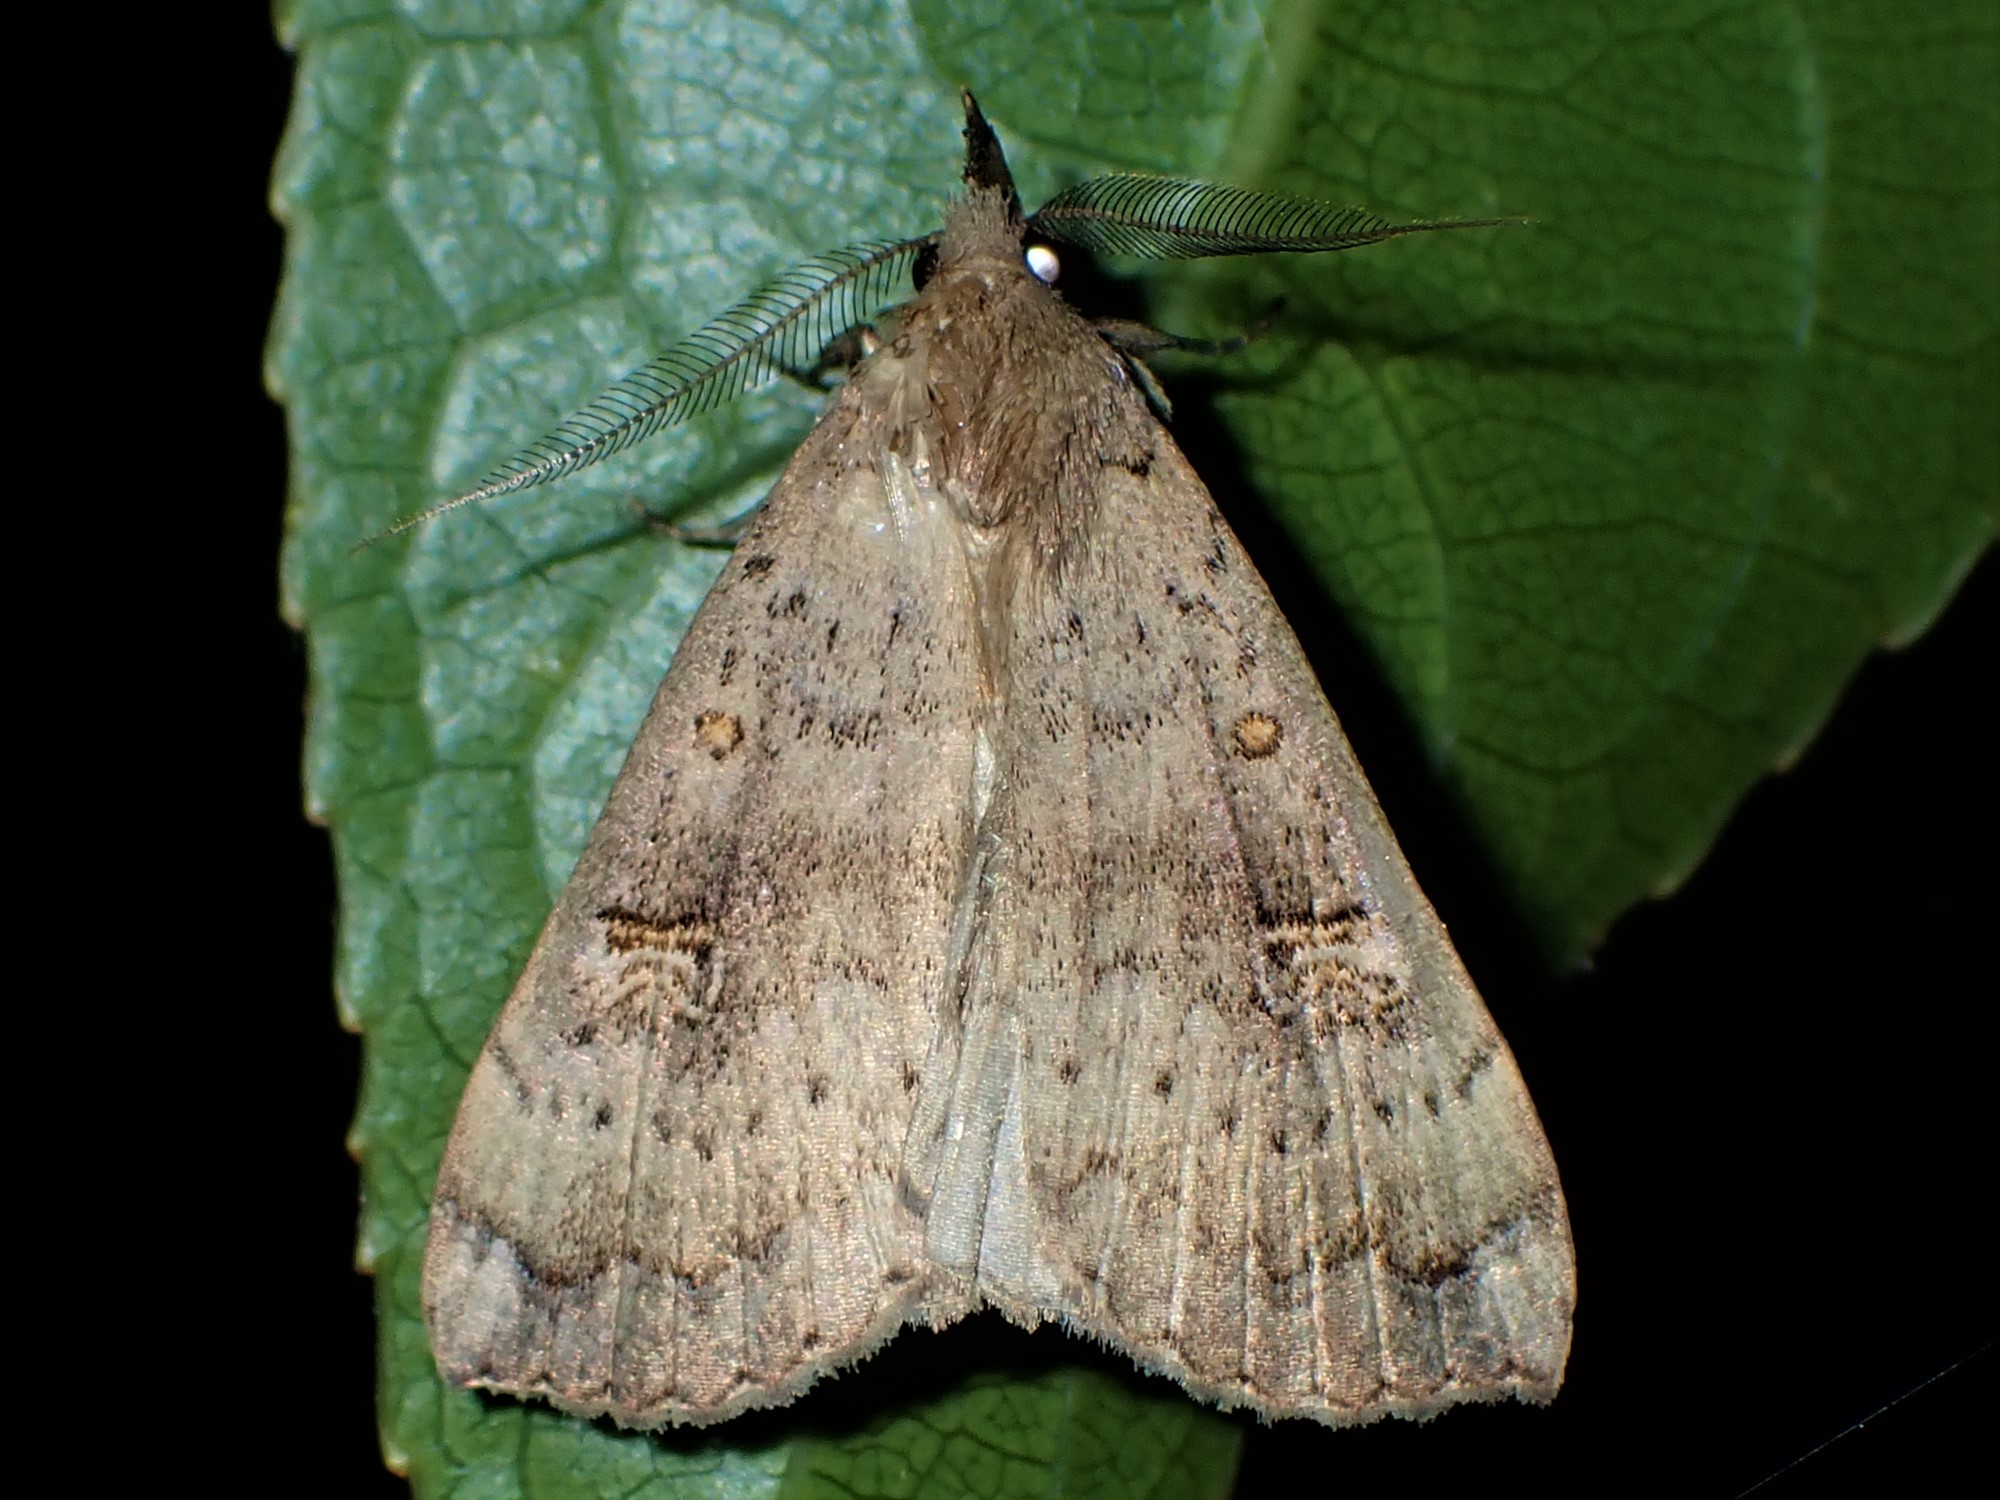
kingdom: Animalia
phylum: Arthropoda
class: Insecta
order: Lepidoptera
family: Erebidae
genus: Rhapsa
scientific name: Rhapsa scotosialis
